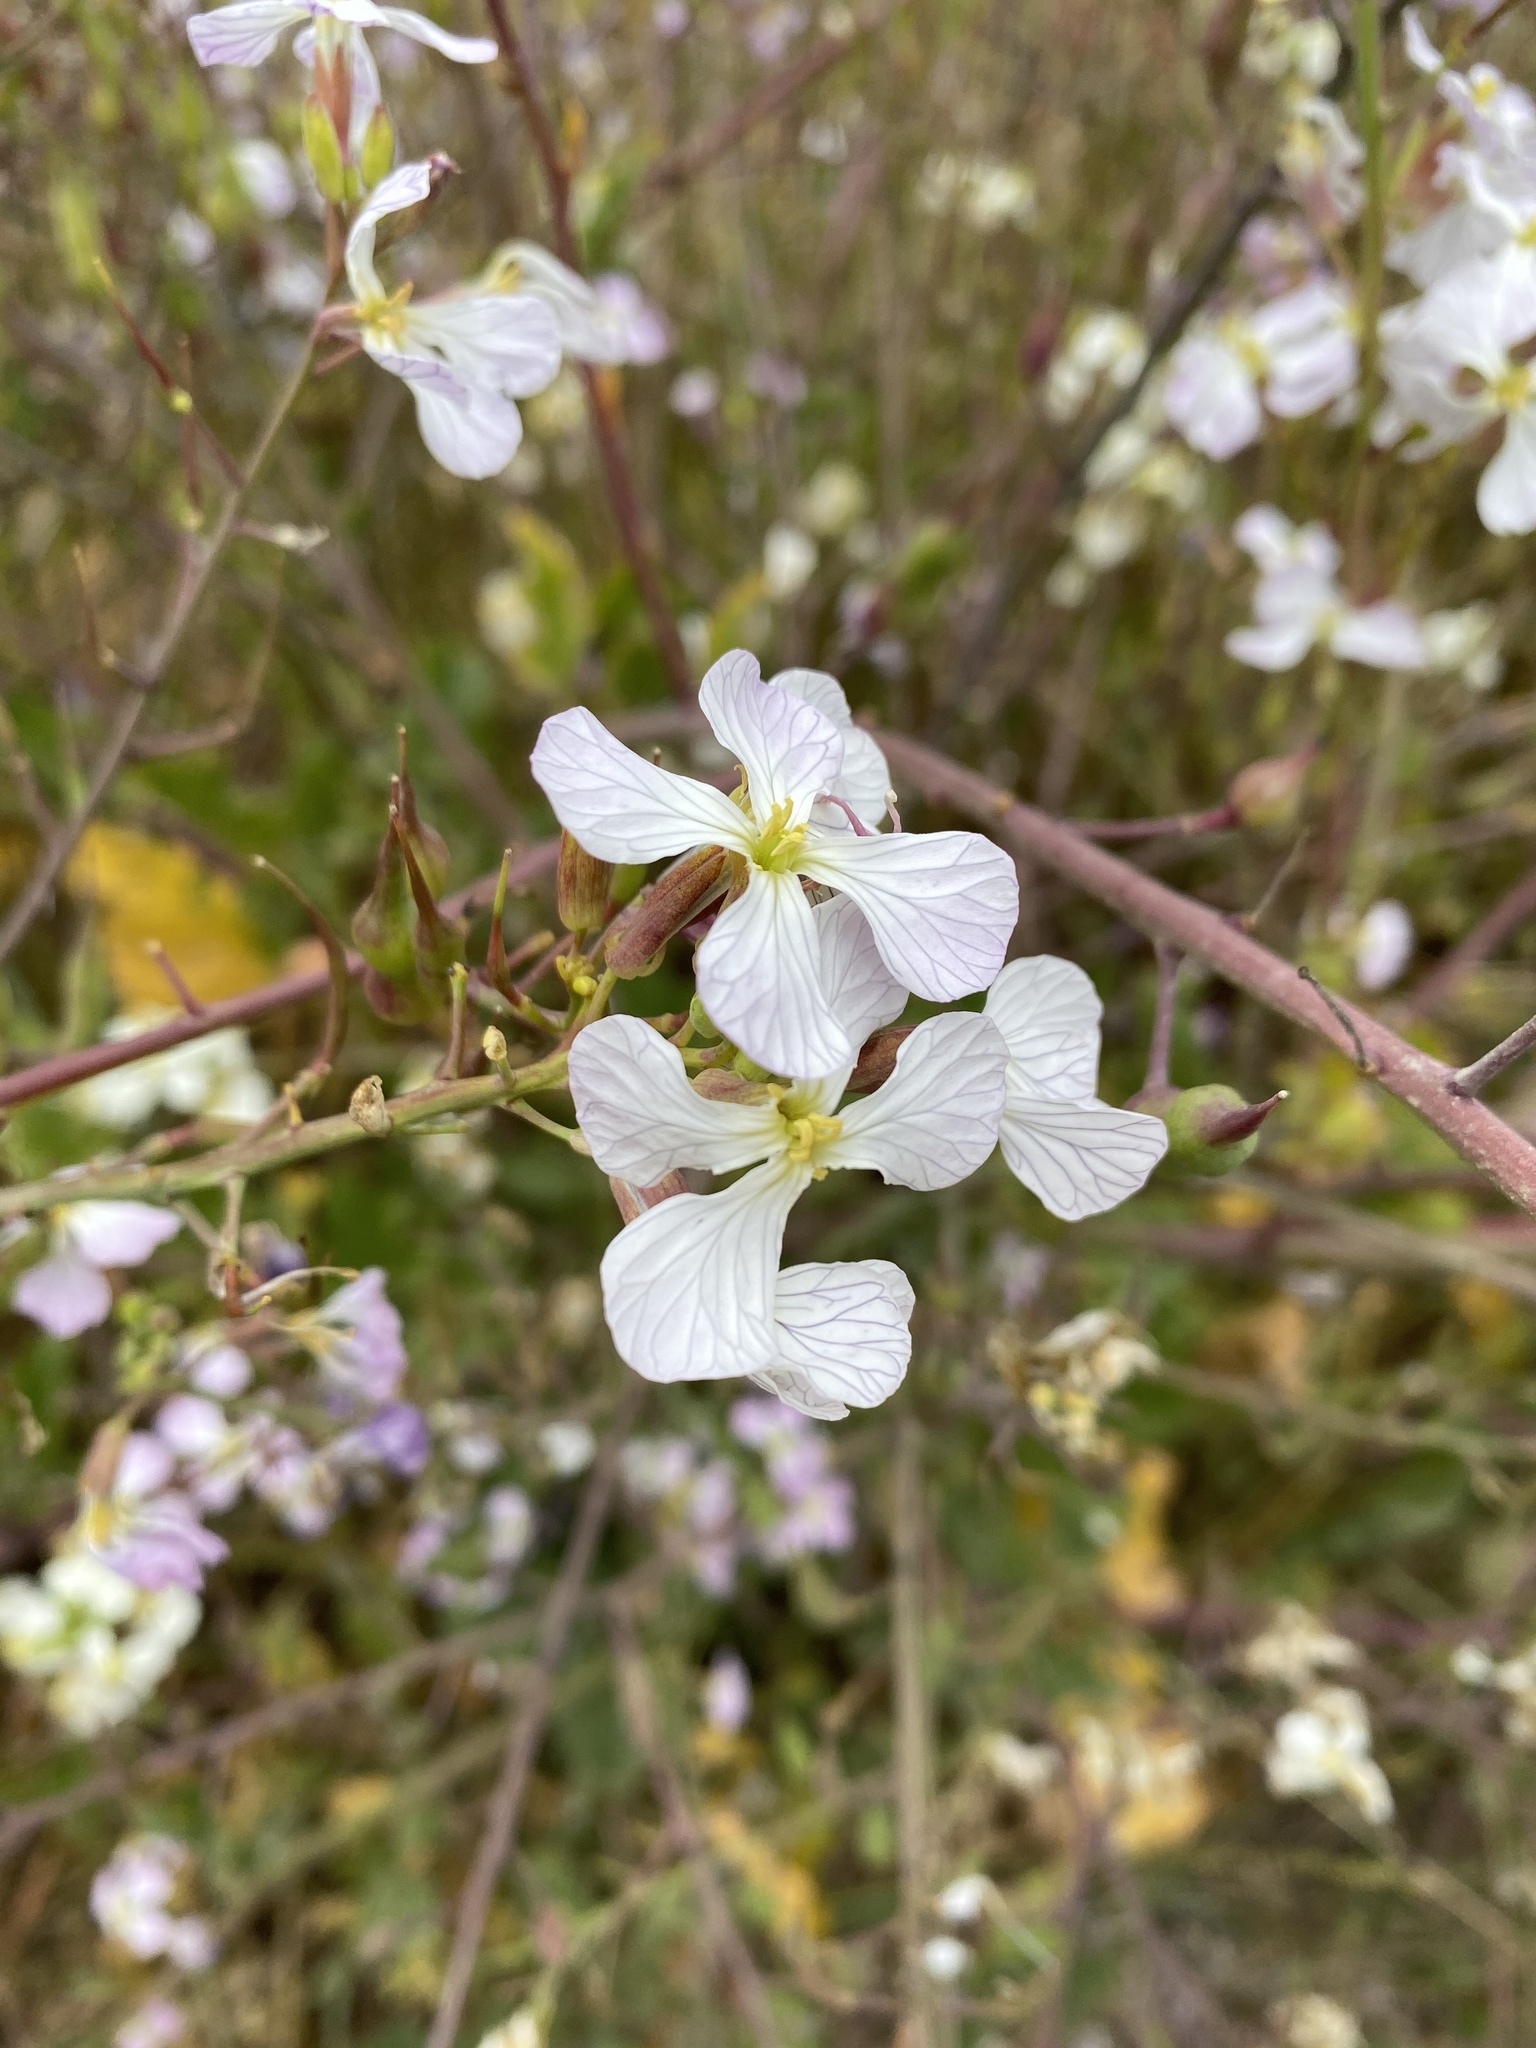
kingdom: Plantae
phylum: Tracheophyta
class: Magnoliopsida
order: Brassicales
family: Brassicaceae
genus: Raphanus
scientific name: Raphanus sativus
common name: Cultivated radish
